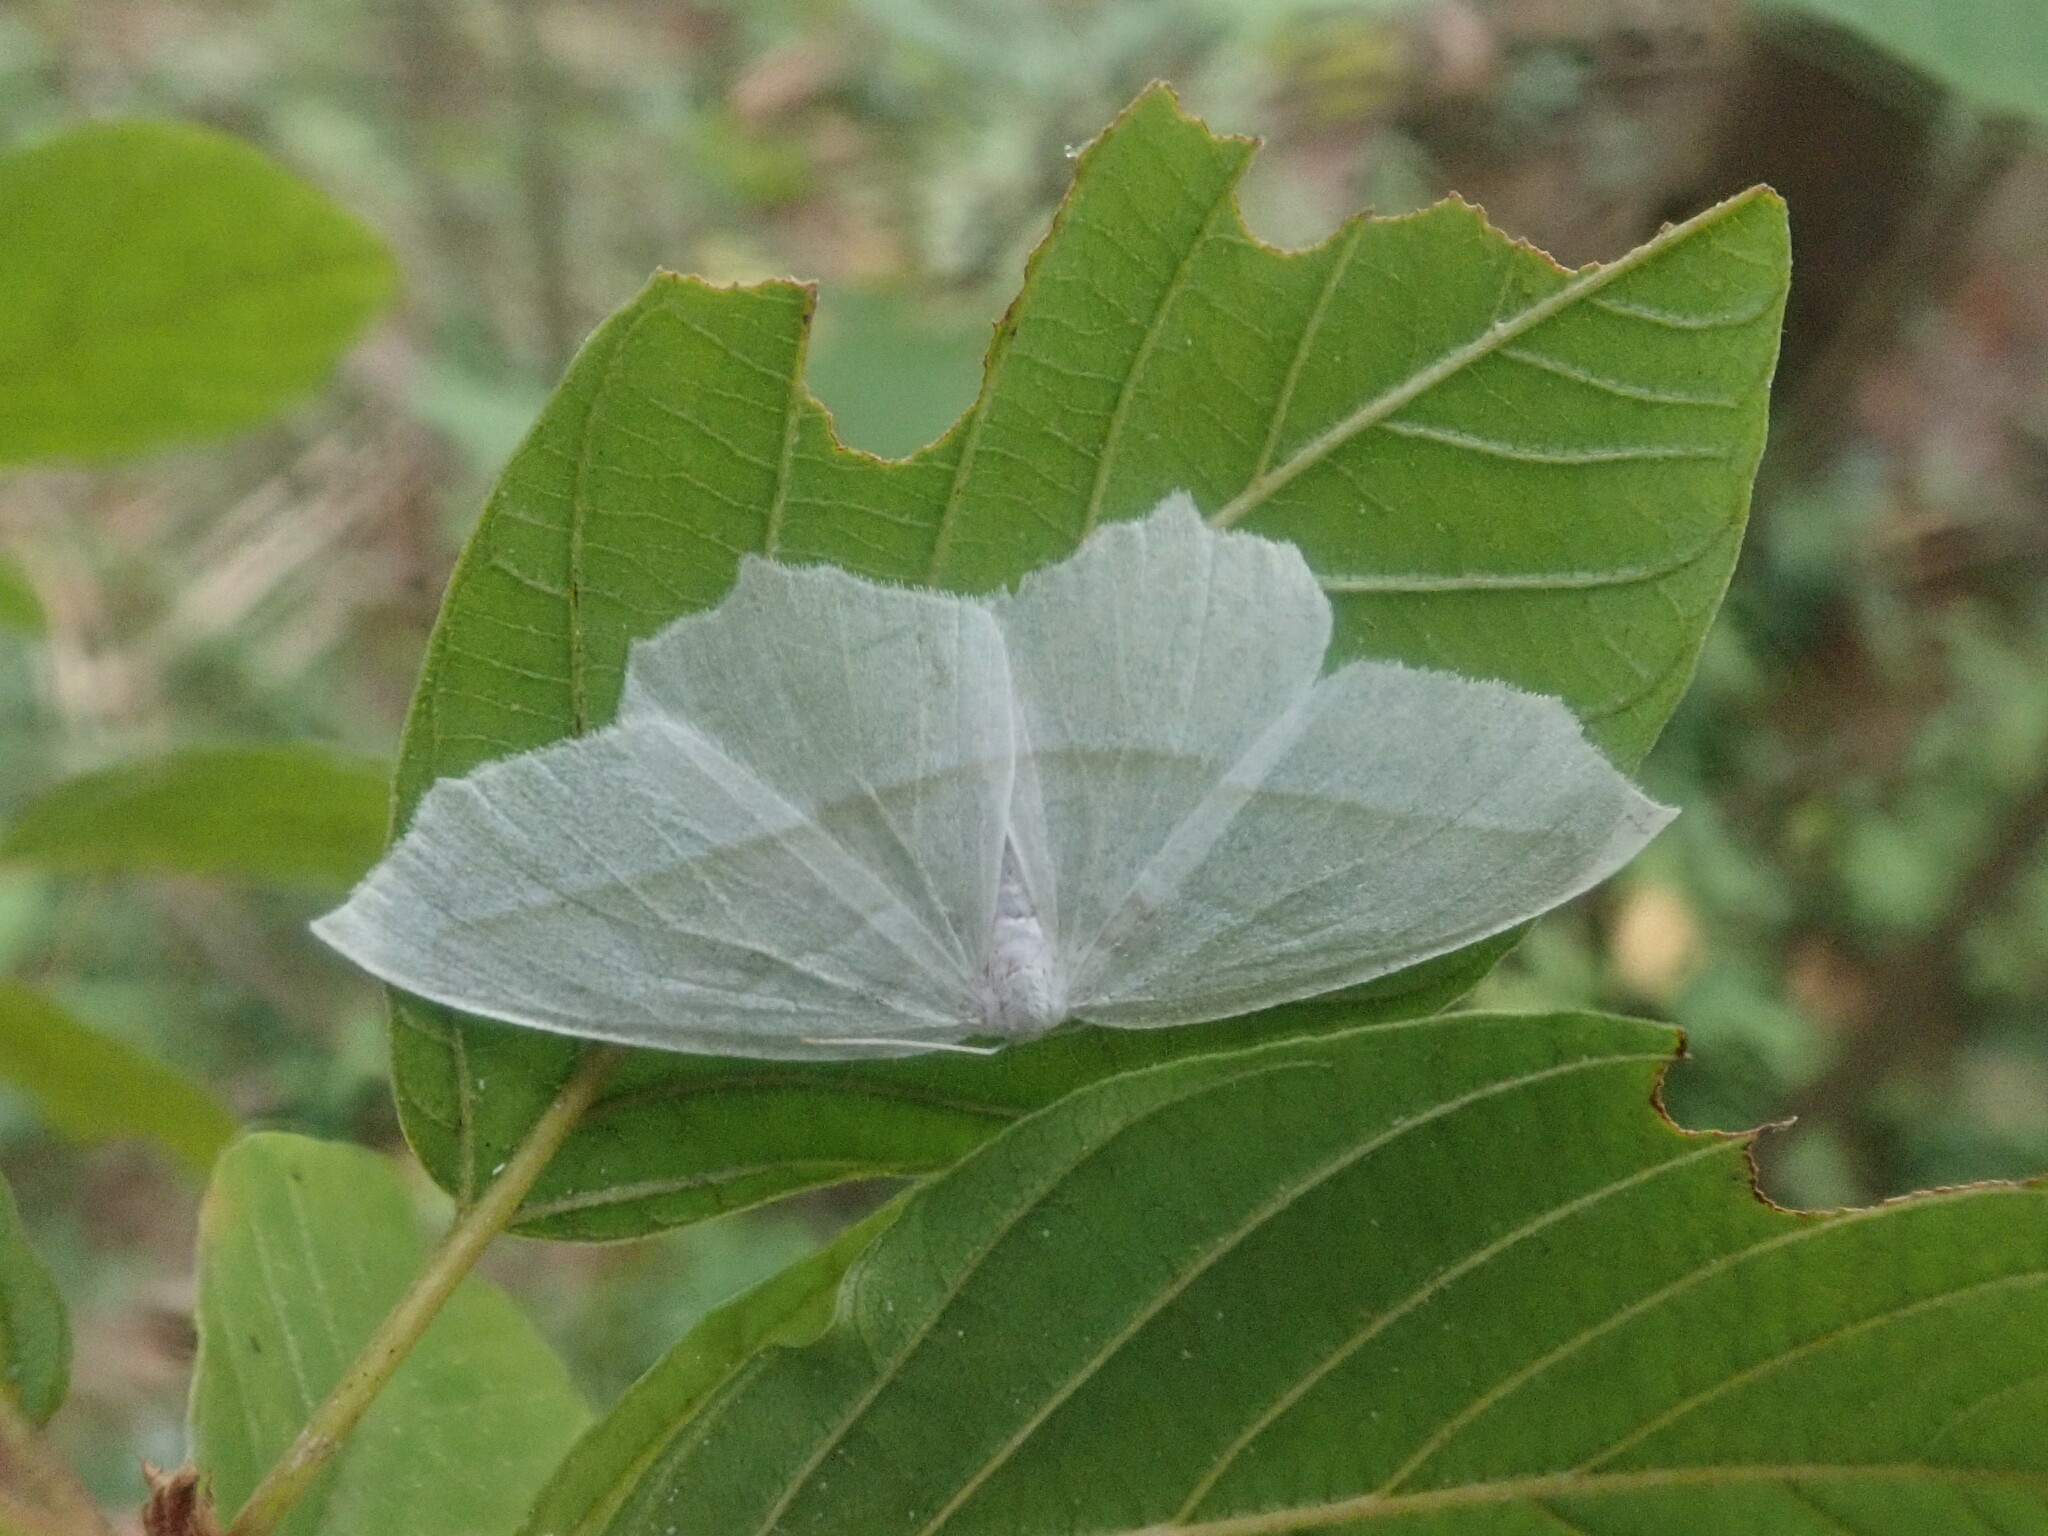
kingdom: Animalia
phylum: Arthropoda
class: Insecta
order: Lepidoptera
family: Geometridae
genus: Campaea
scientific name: Campaea perlata
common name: Fringed looper
